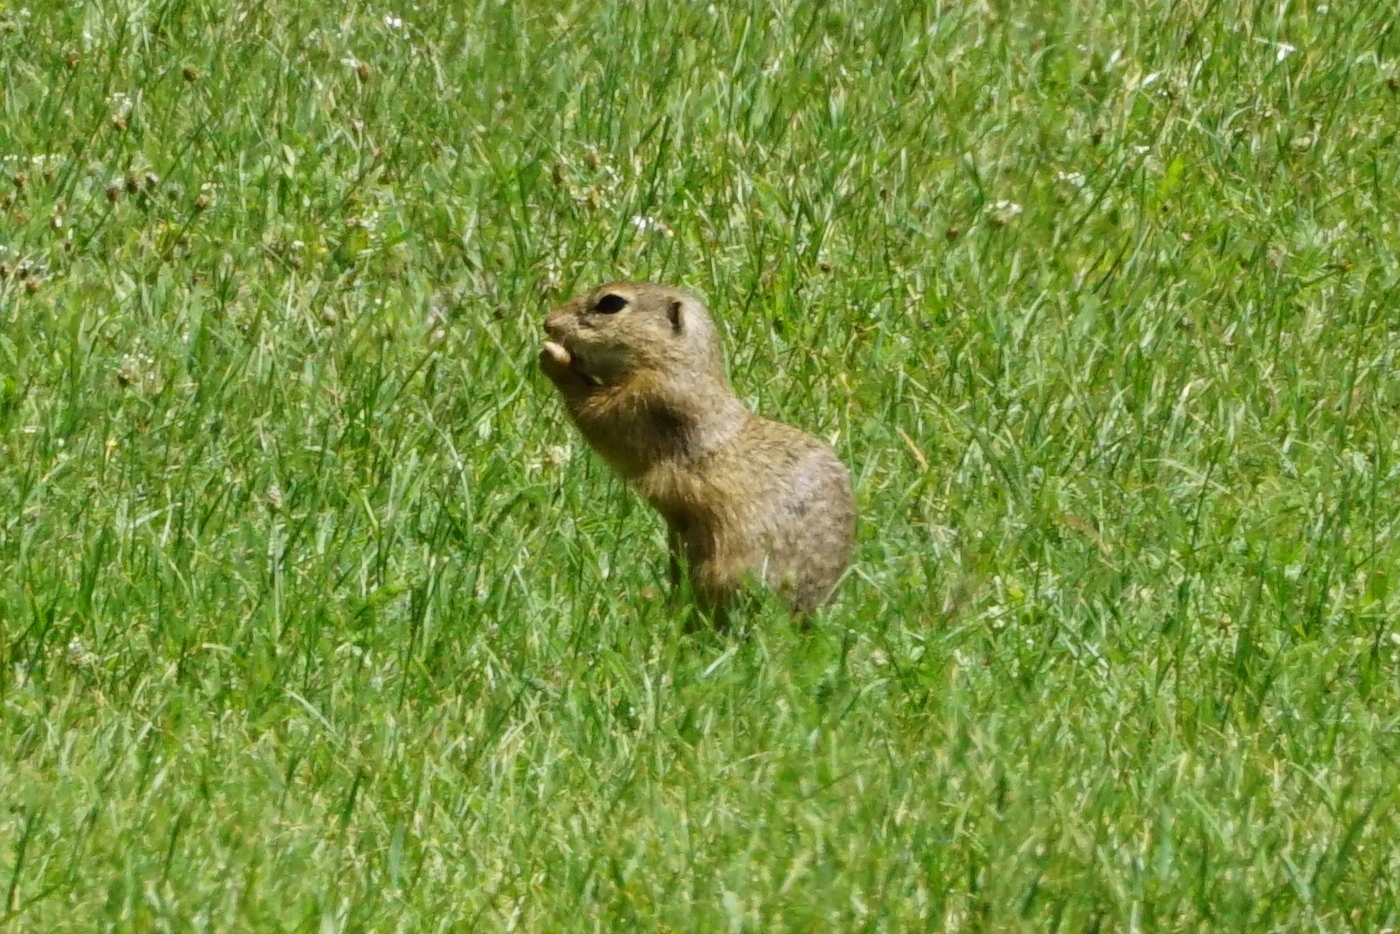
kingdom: Animalia
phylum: Chordata
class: Mammalia
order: Rodentia
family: Sciuridae
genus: Spermophilus
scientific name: Spermophilus citellus
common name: European ground squirrel
